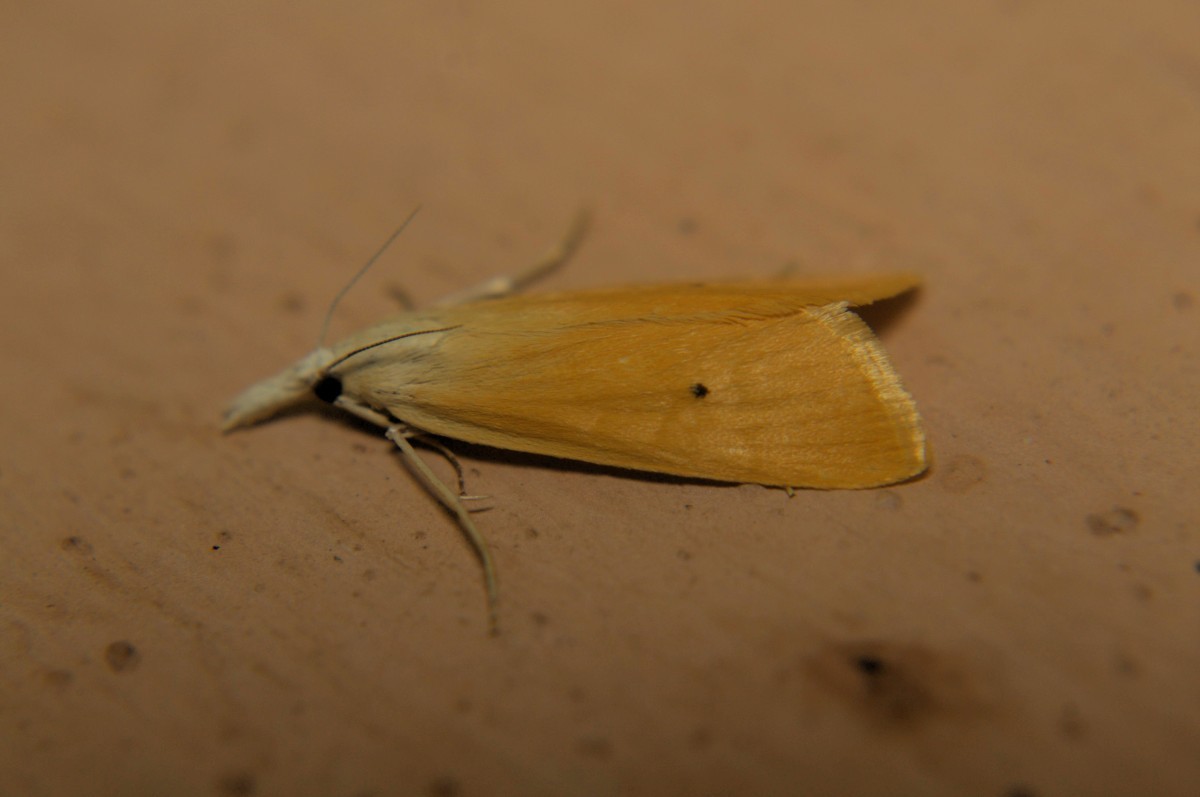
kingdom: Animalia
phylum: Arthropoda
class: Insecta
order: Lepidoptera
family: Crambidae
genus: Scirpophaga
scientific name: Scirpophaga incertulas
